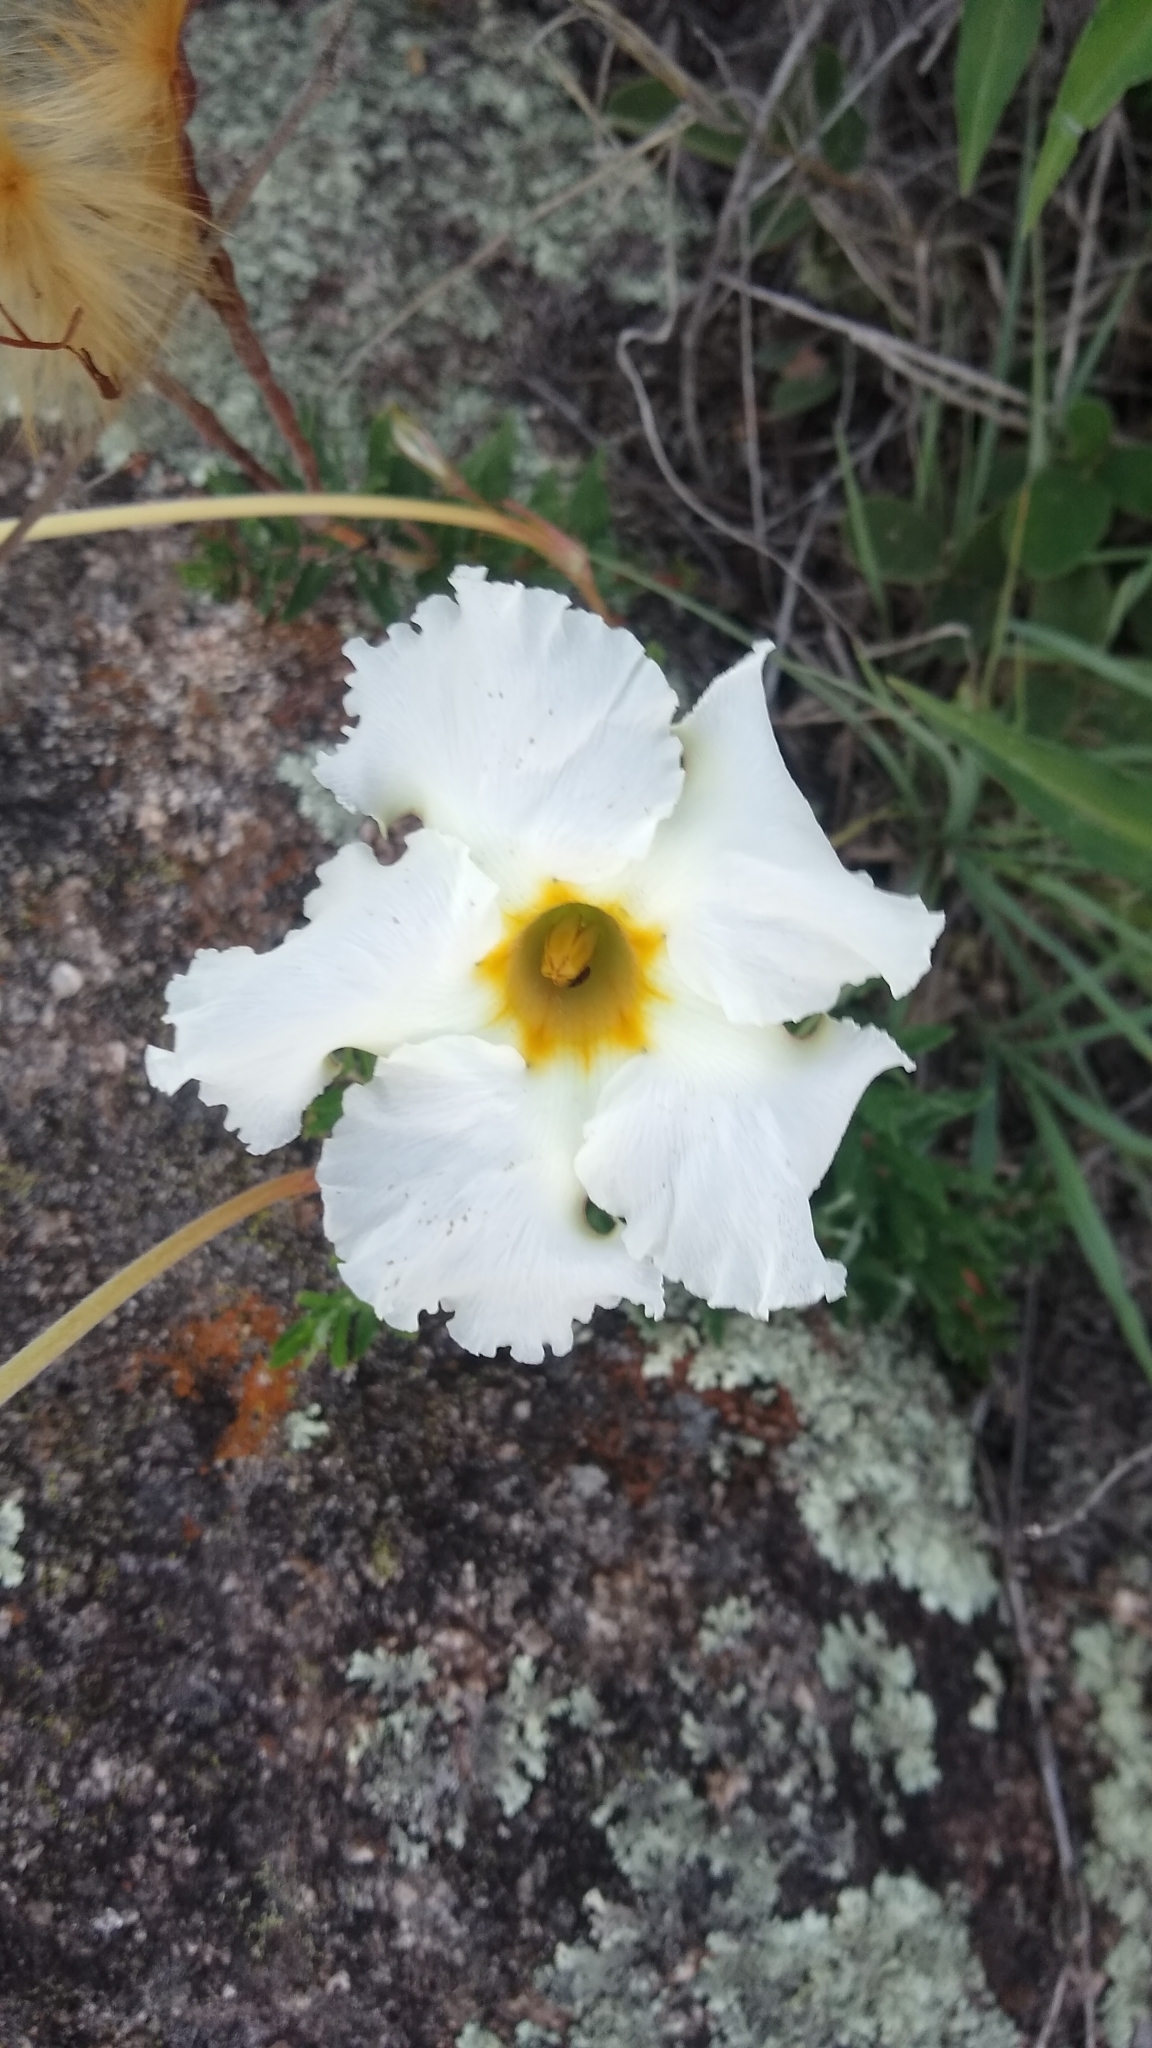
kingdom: Plantae
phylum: Tracheophyta
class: Magnoliopsida
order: Gentianales
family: Apocynaceae
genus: Mandevilla
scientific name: Mandevilla petraea
